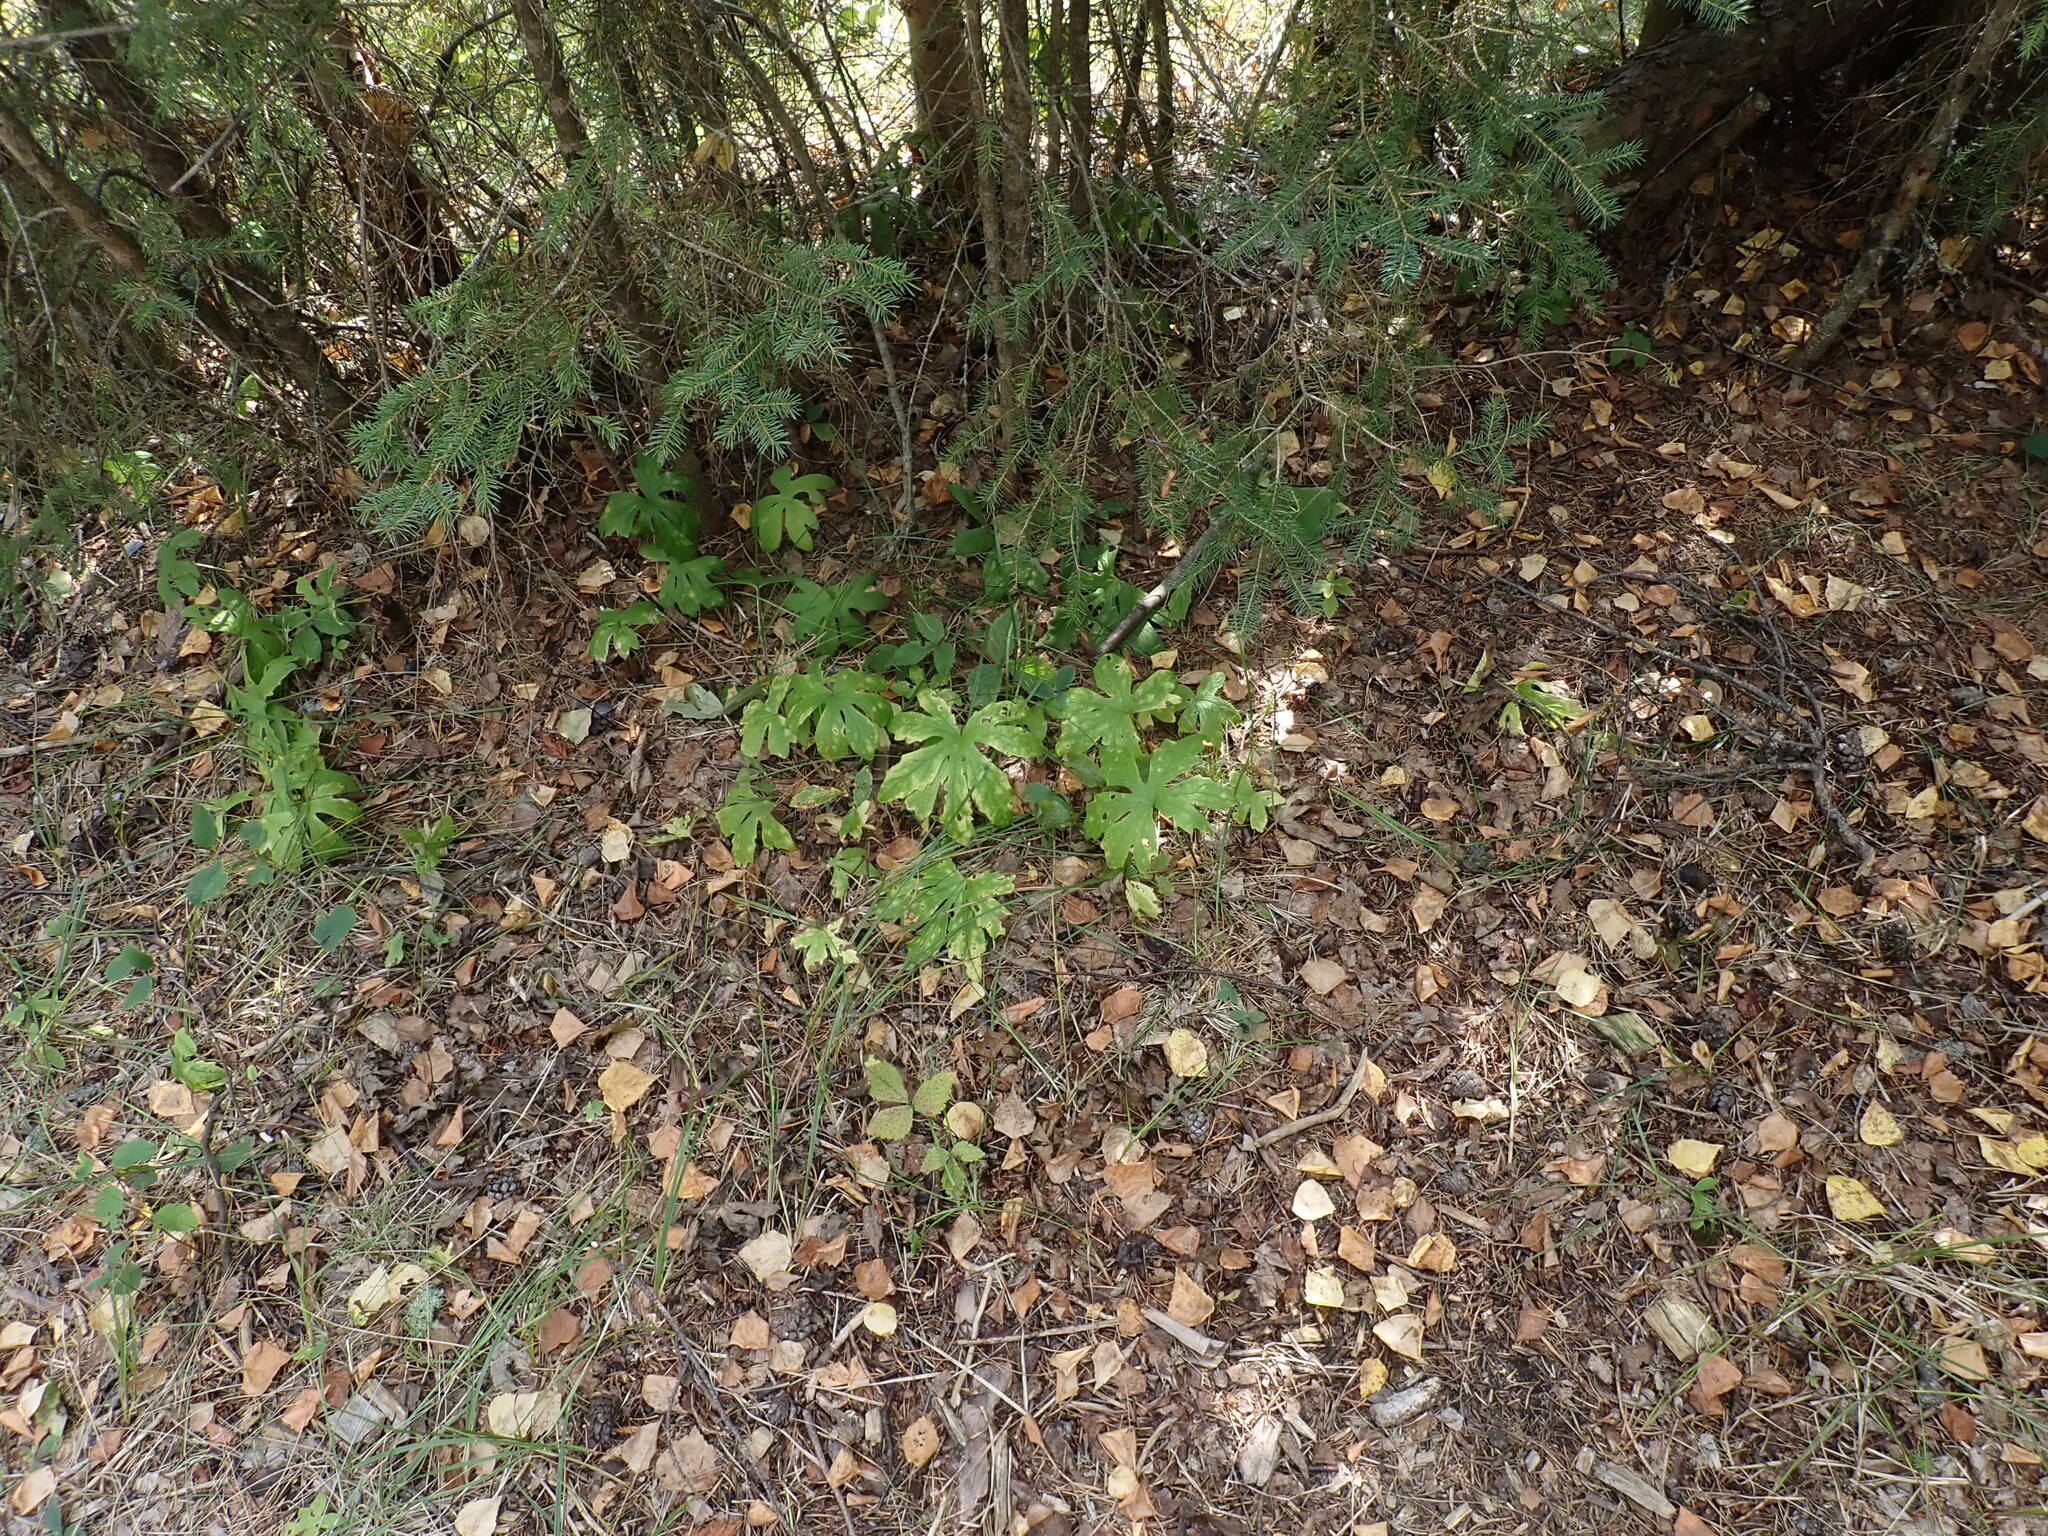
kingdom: Plantae
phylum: Tracheophyta
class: Magnoliopsida
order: Asterales
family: Asteraceae
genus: Petasites
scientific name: Petasites frigidus
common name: Arctic butterbur
